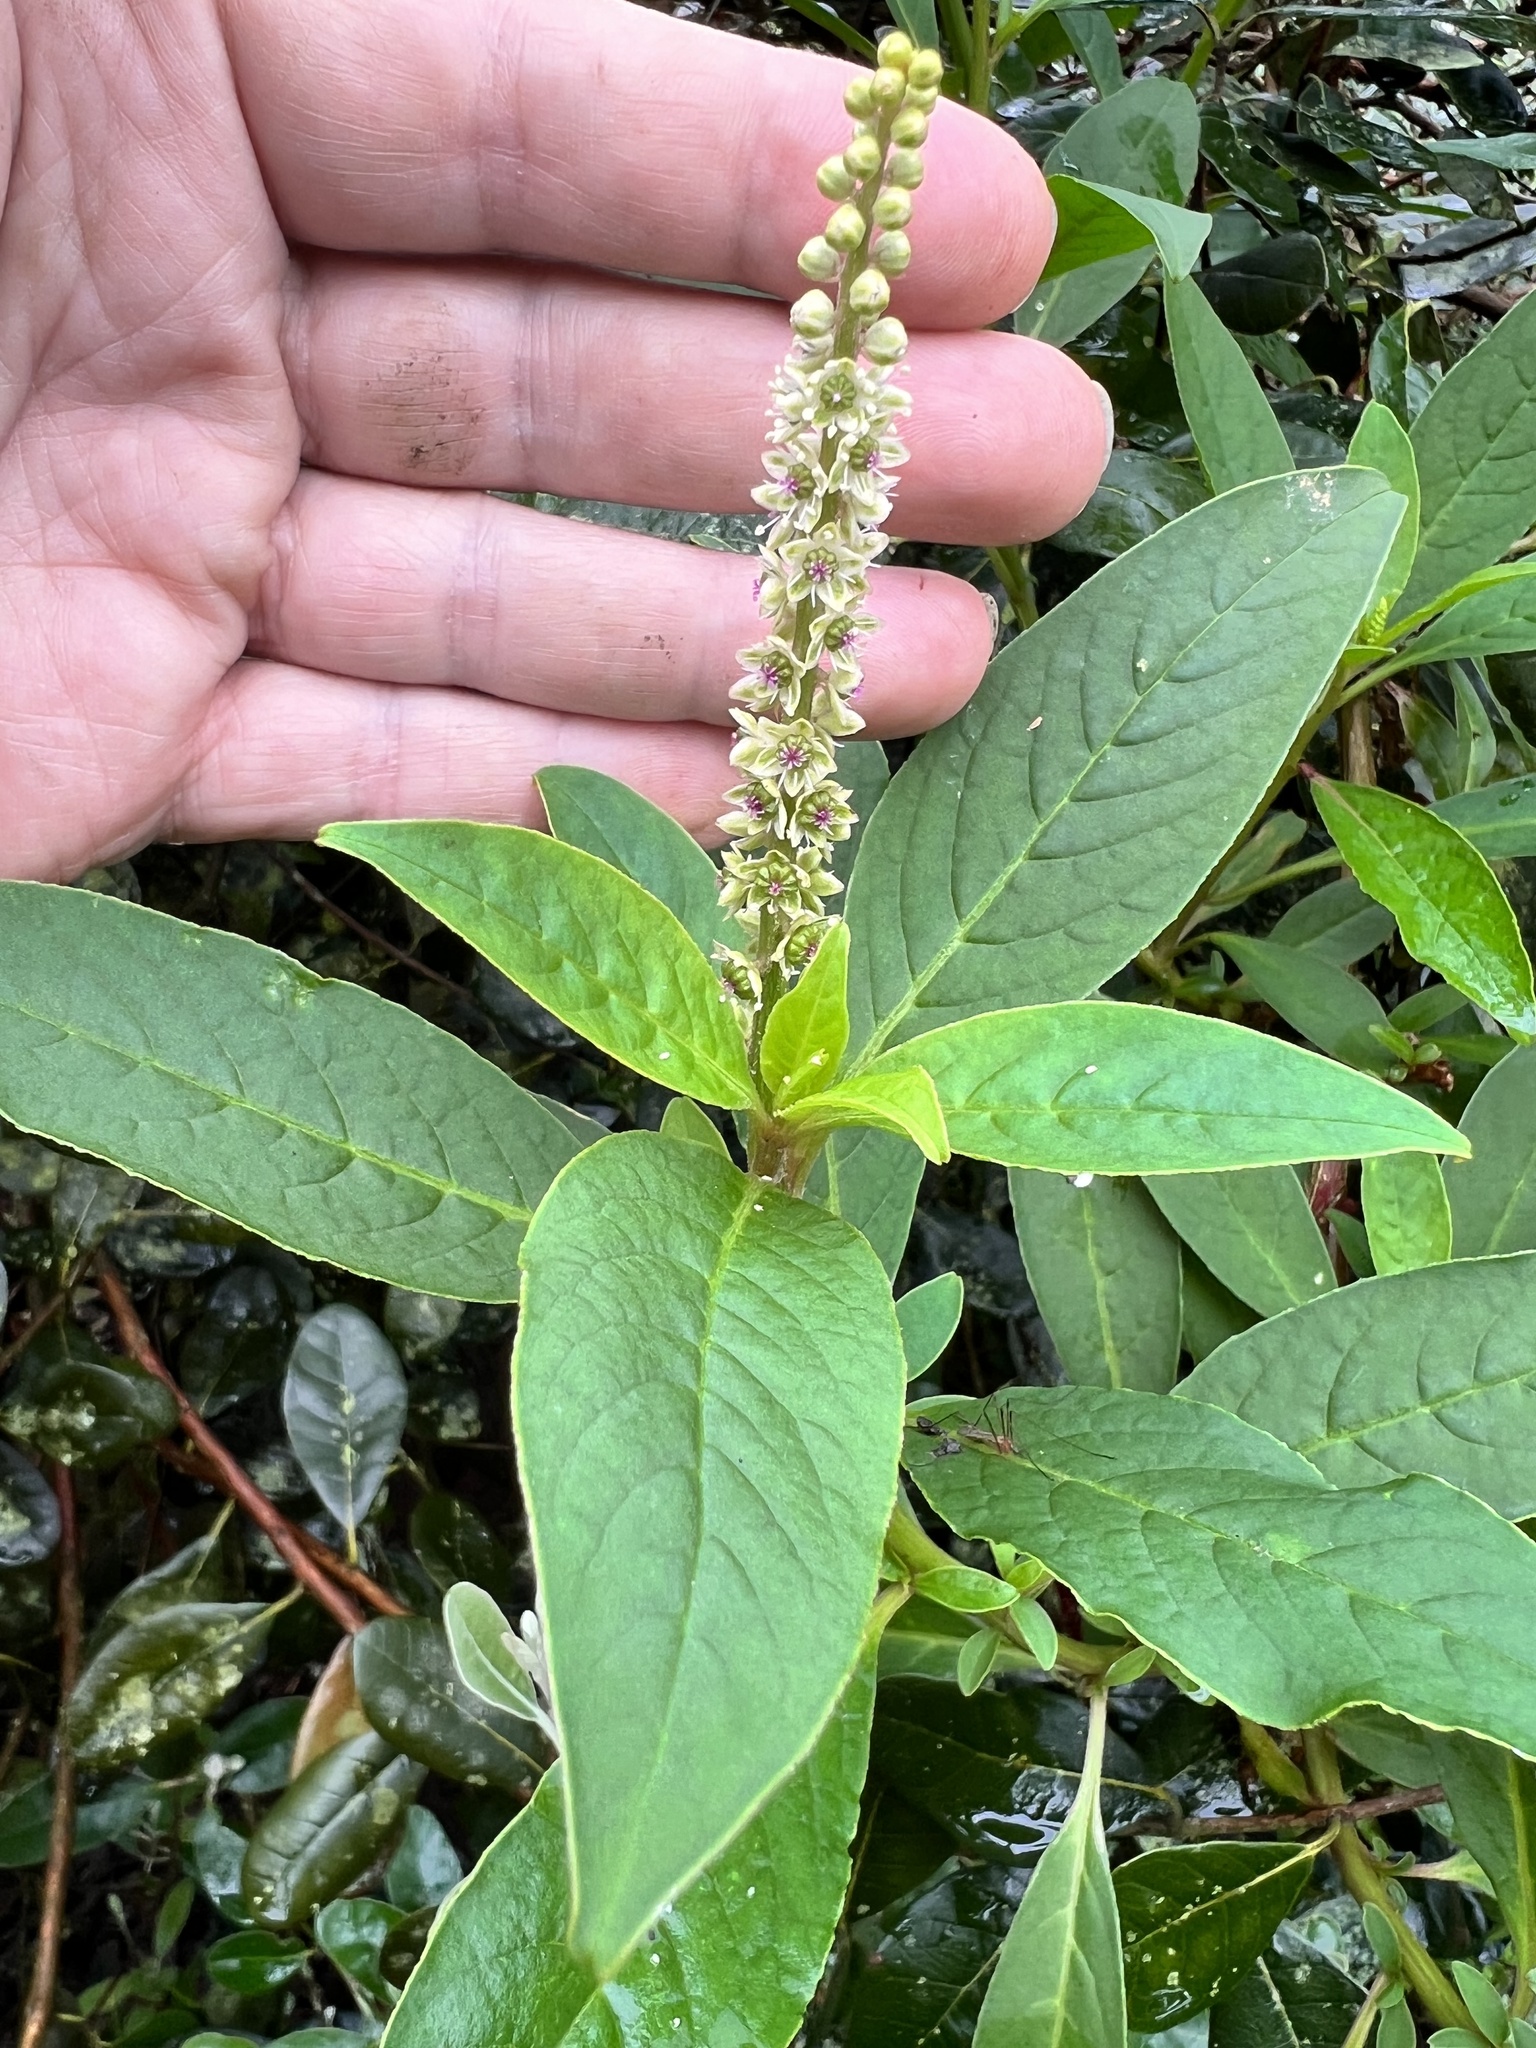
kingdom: Plantae
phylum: Tracheophyta
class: Magnoliopsida
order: Caryophyllales
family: Phytolaccaceae
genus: Phytolacca
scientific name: Phytolacca icosandra
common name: Button pokeweed
